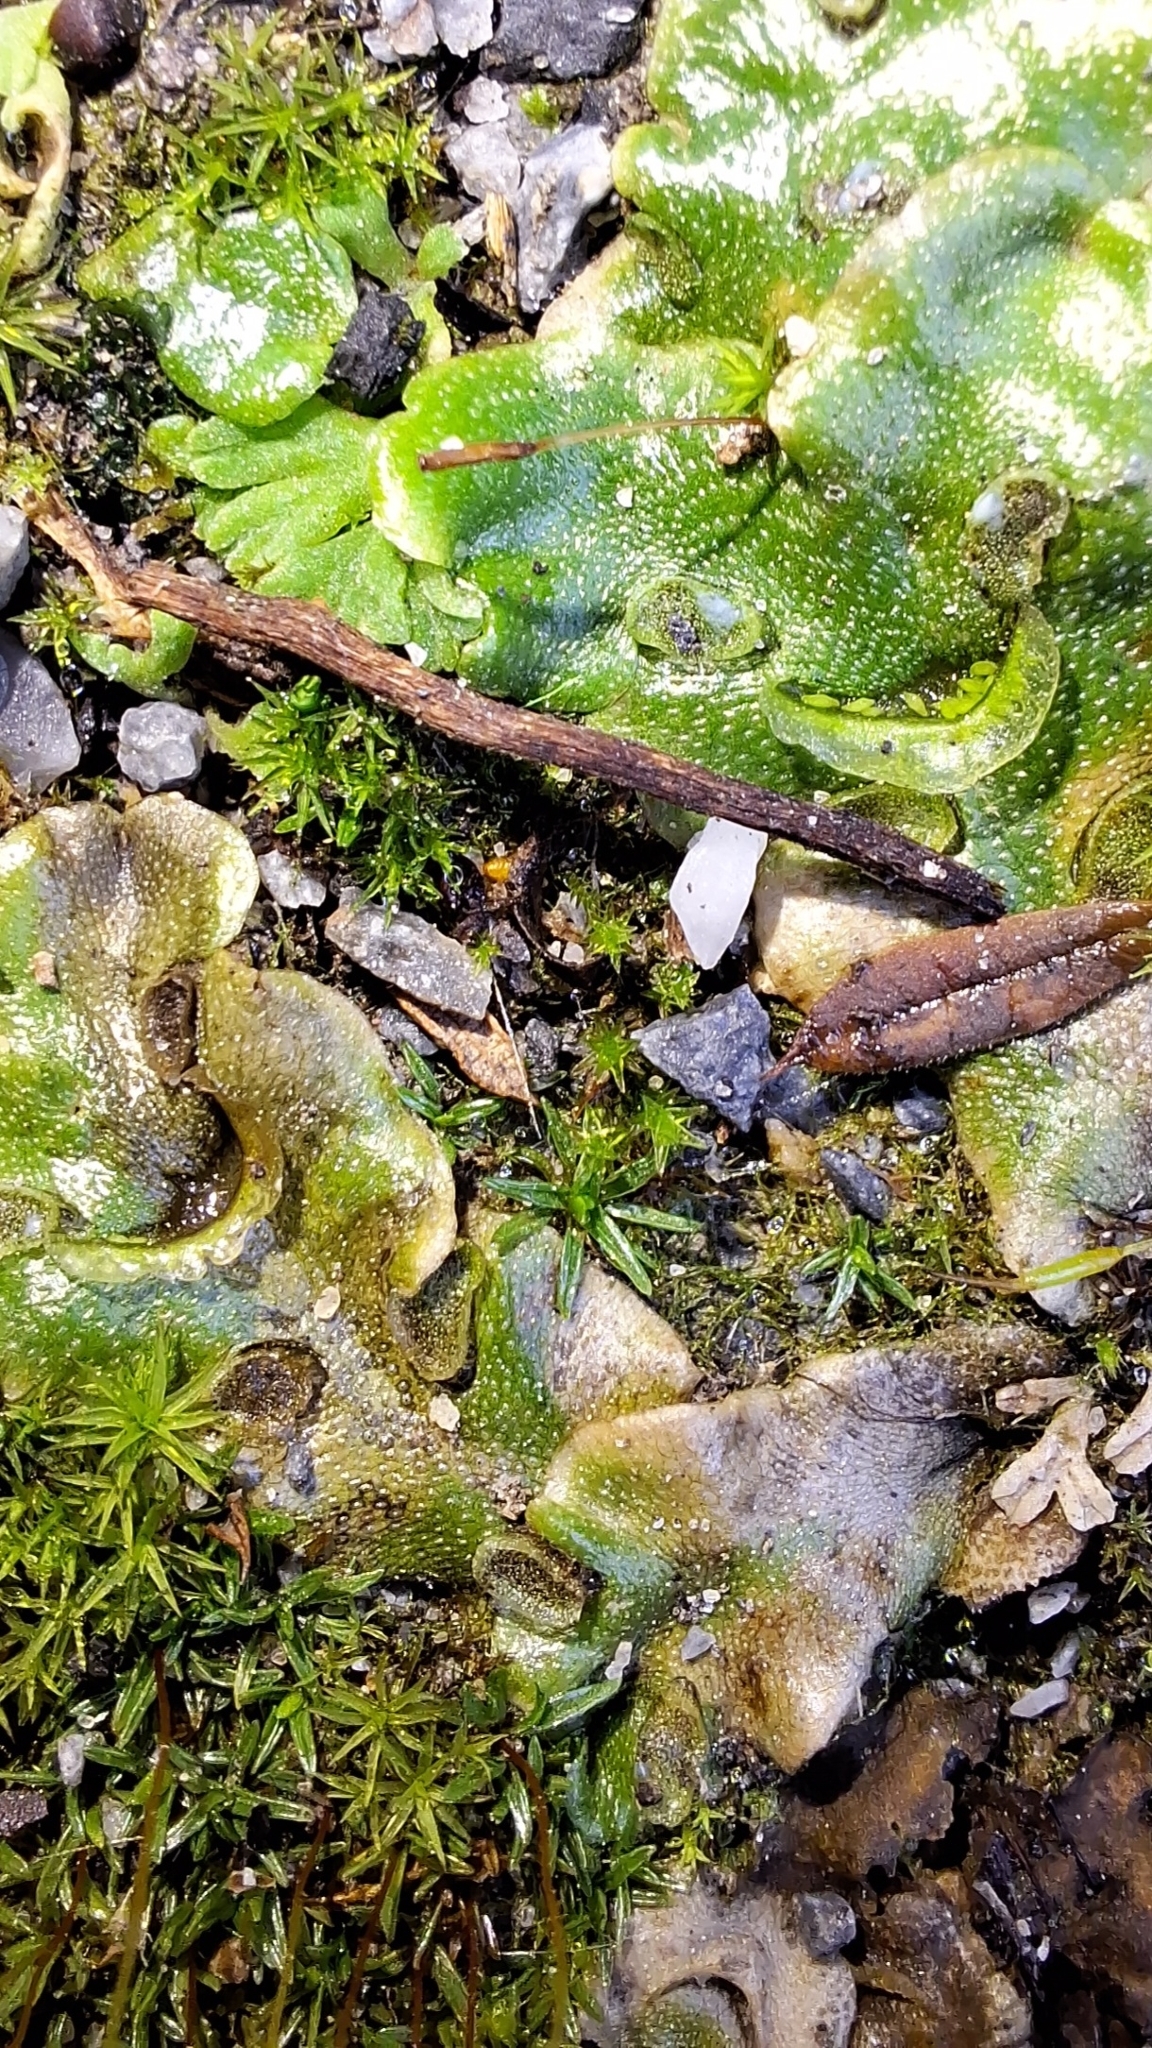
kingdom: Plantae
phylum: Marchantiophyta
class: Marchantiopsida
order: Lunulariales
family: Lunulariaceae
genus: Lunularia
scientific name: Lunularia cruciata
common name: Crescent-cup liverwort
